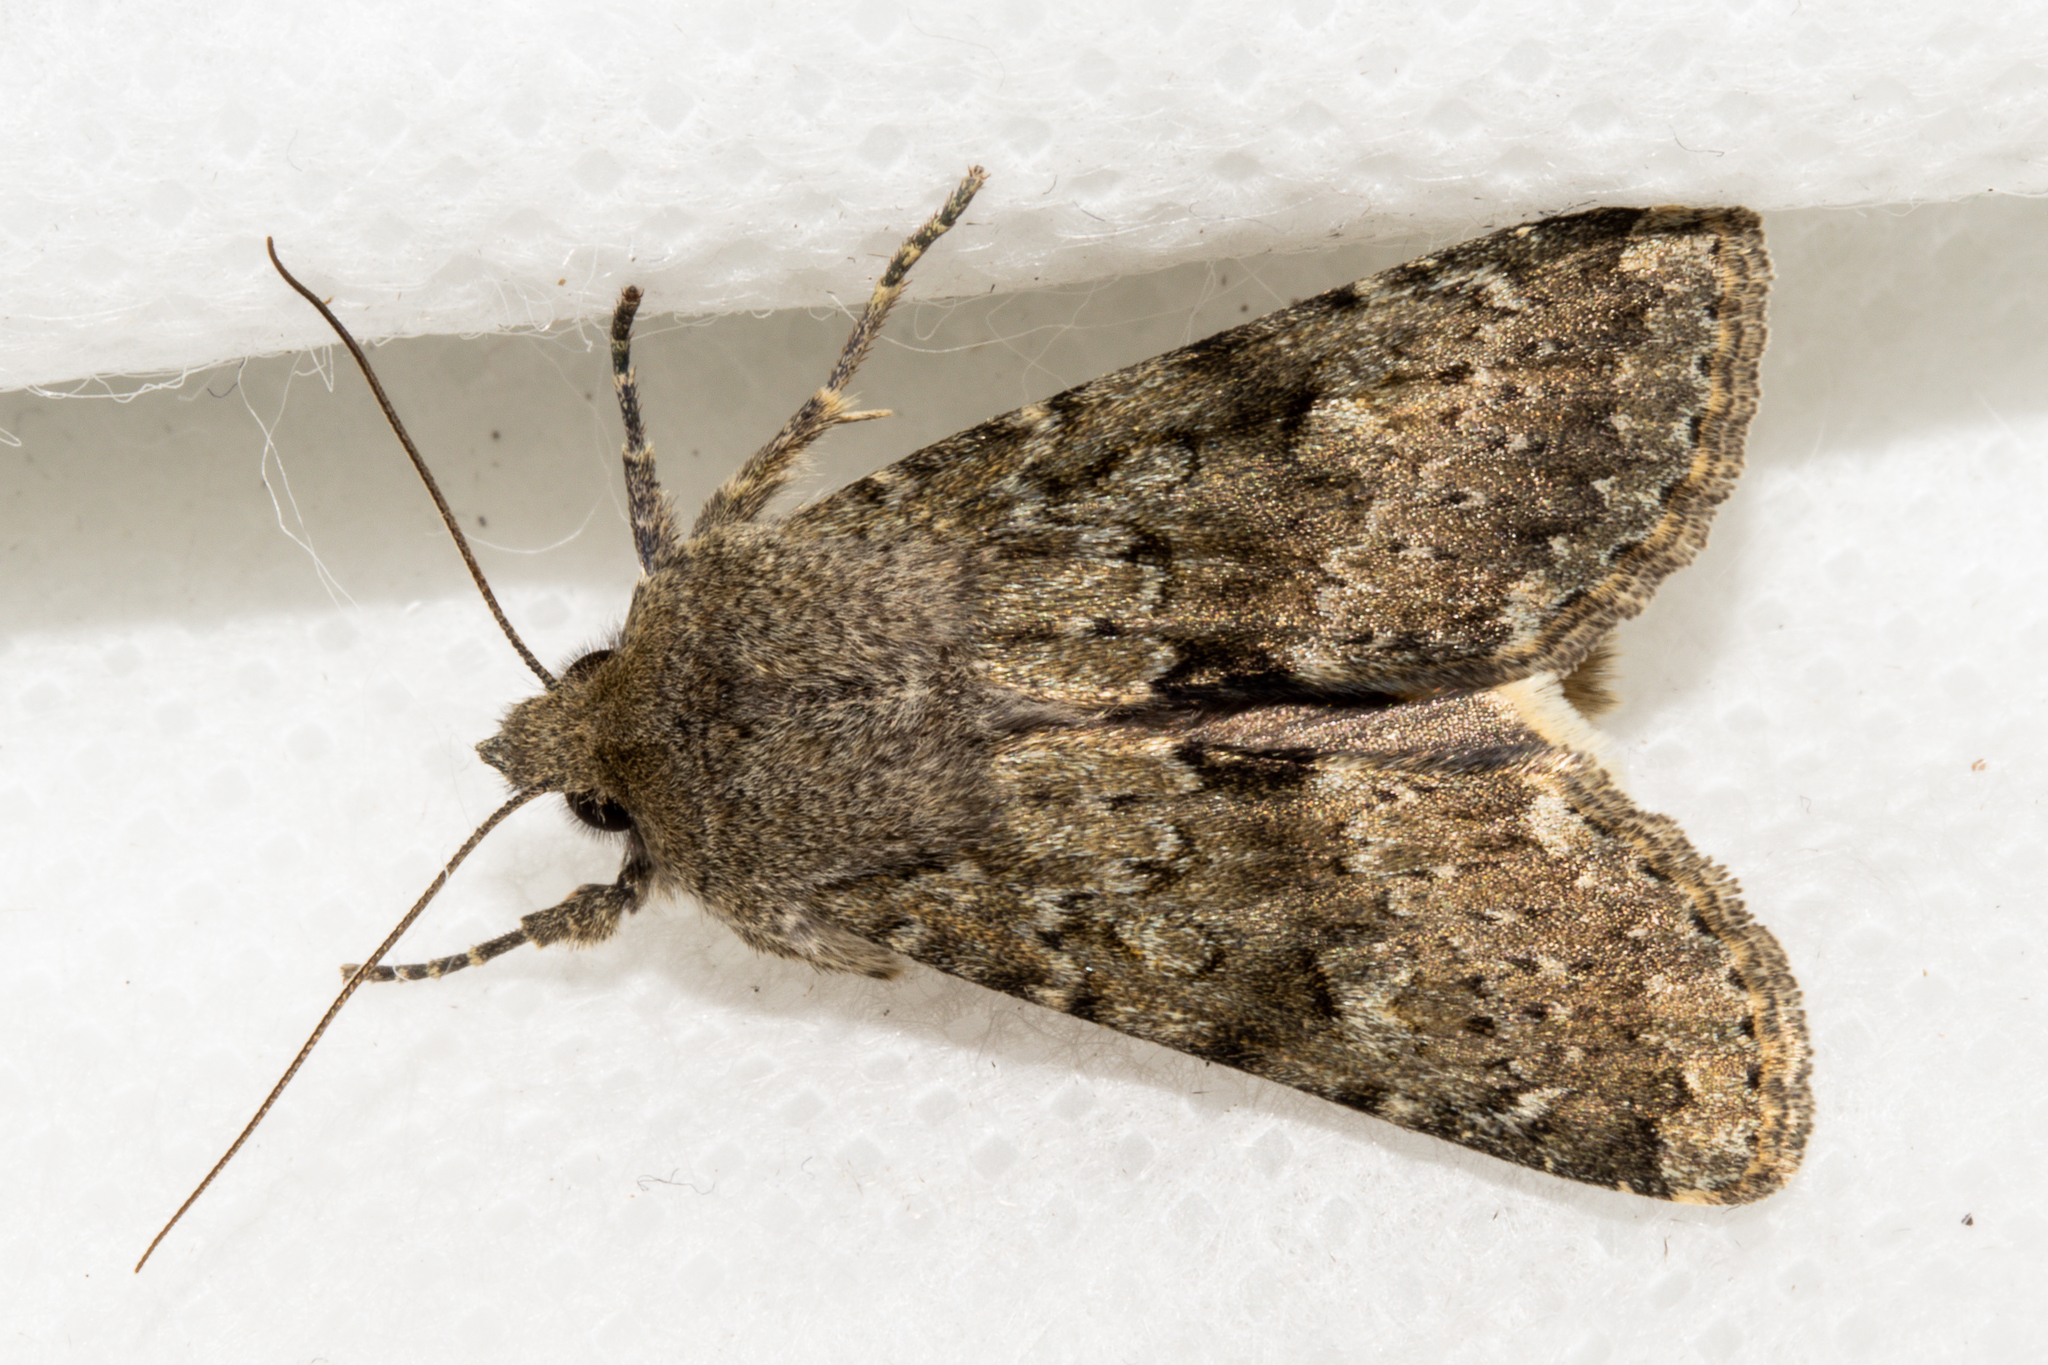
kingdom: Animalia
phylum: Arthropoda
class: Insecta
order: Lepidoptera
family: Noctuidae
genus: Ichneutica
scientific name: Ichneutica moderata
